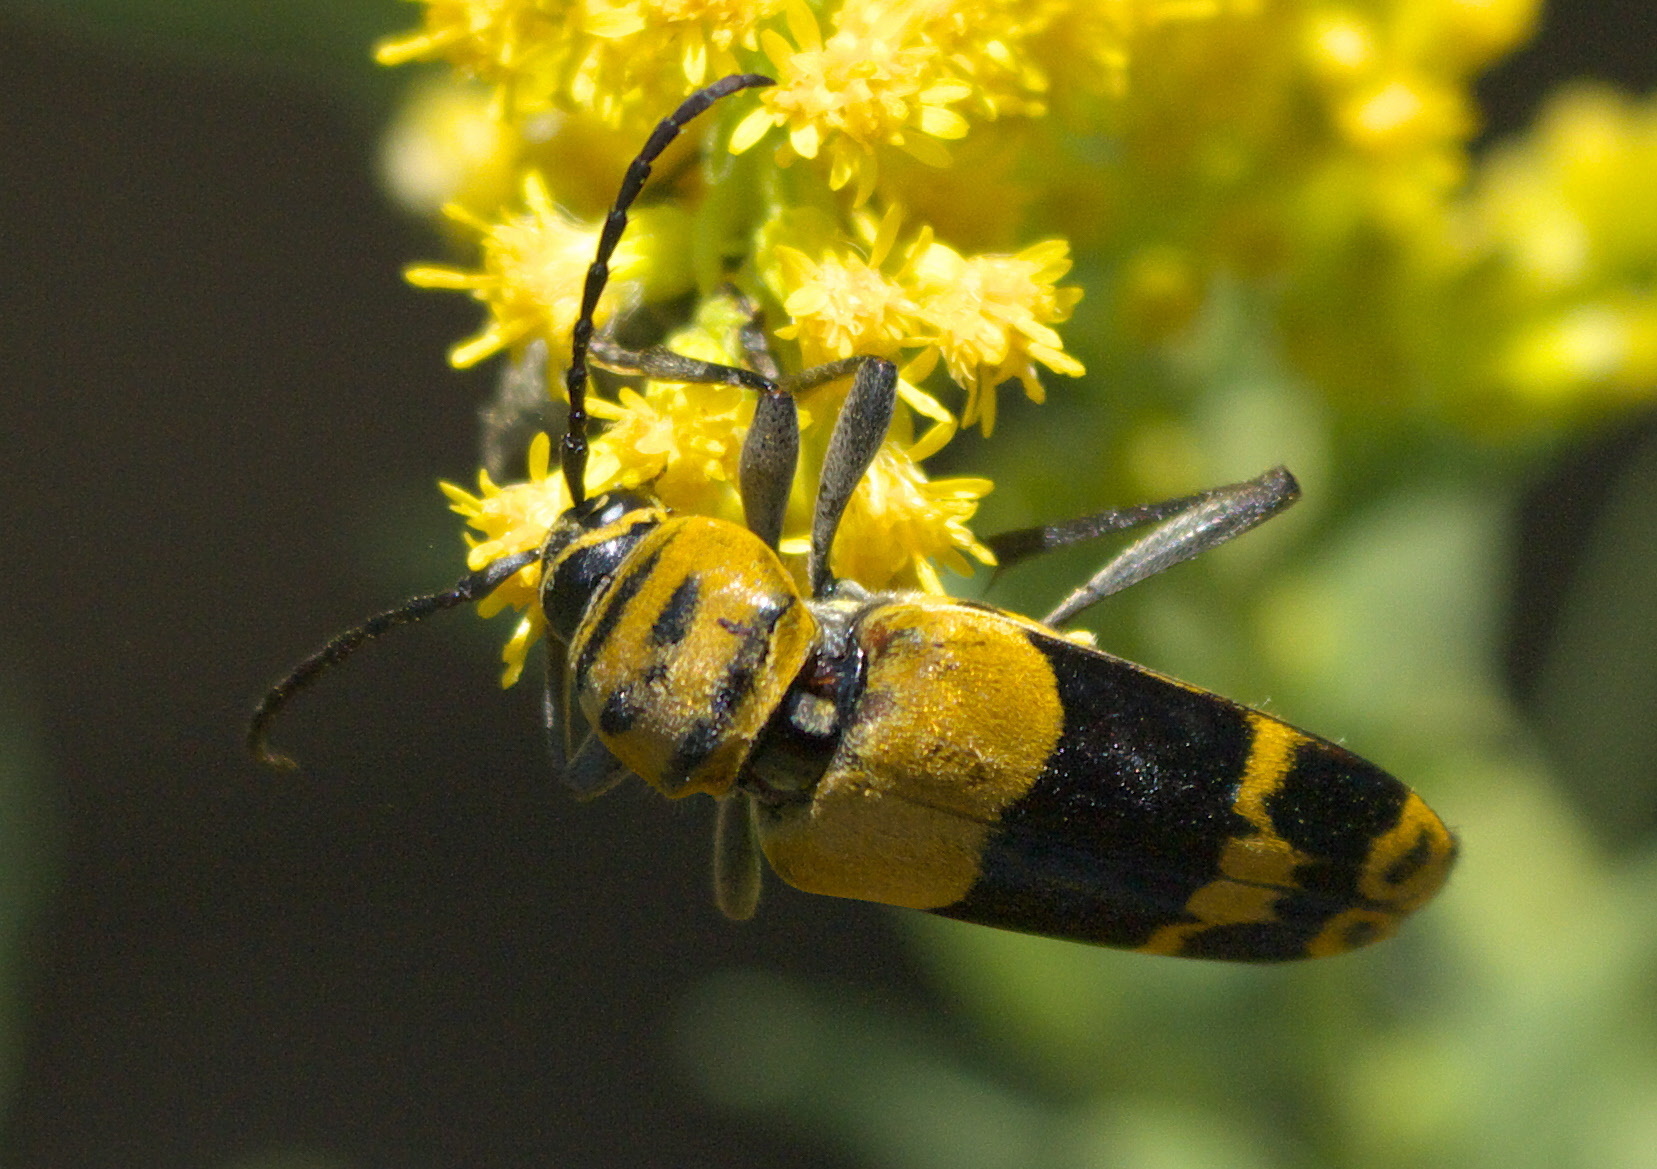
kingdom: Animalia
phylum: Arthropoda
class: Insecta
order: Coleoptera
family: Cerambycidae
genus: Megacyllene
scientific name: Megacyllene decora
